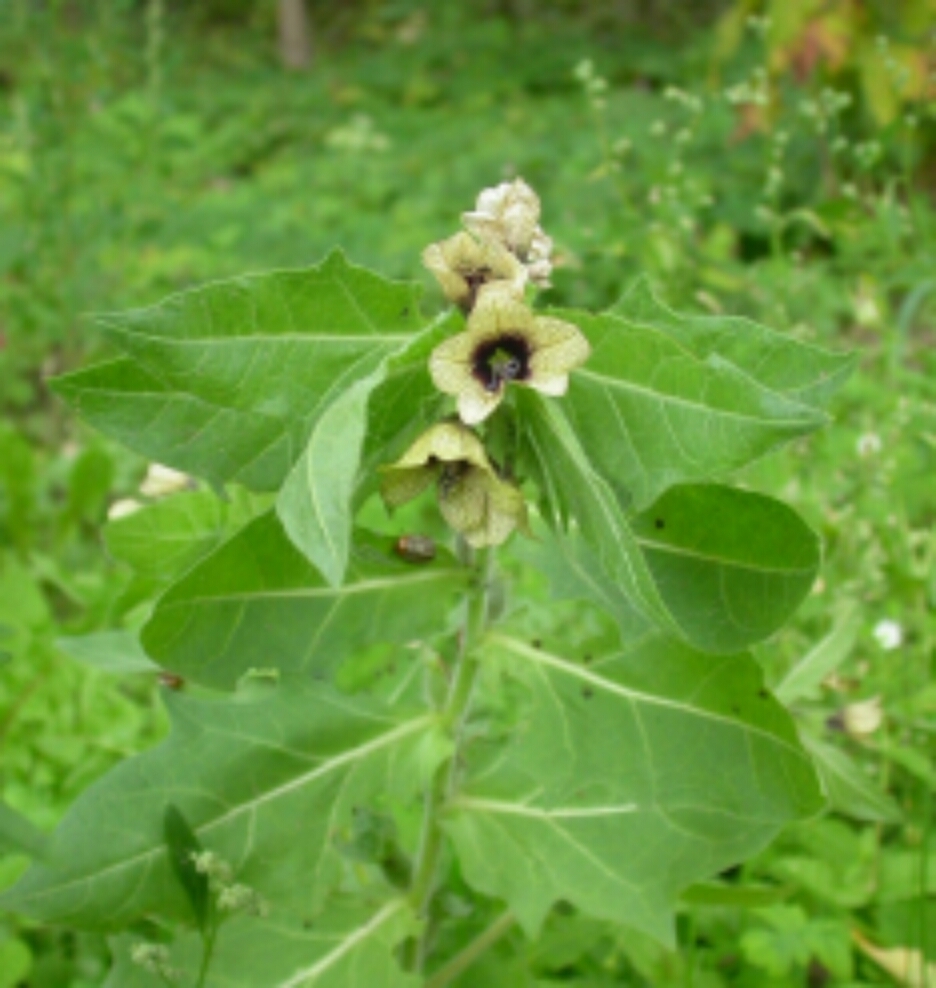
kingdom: Plantae
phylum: Tracheophyta
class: Magnoliopsida
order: Solanales
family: Solanaceae
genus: Hyoscyamus
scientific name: Hyoscyamus niger
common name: Henbane
